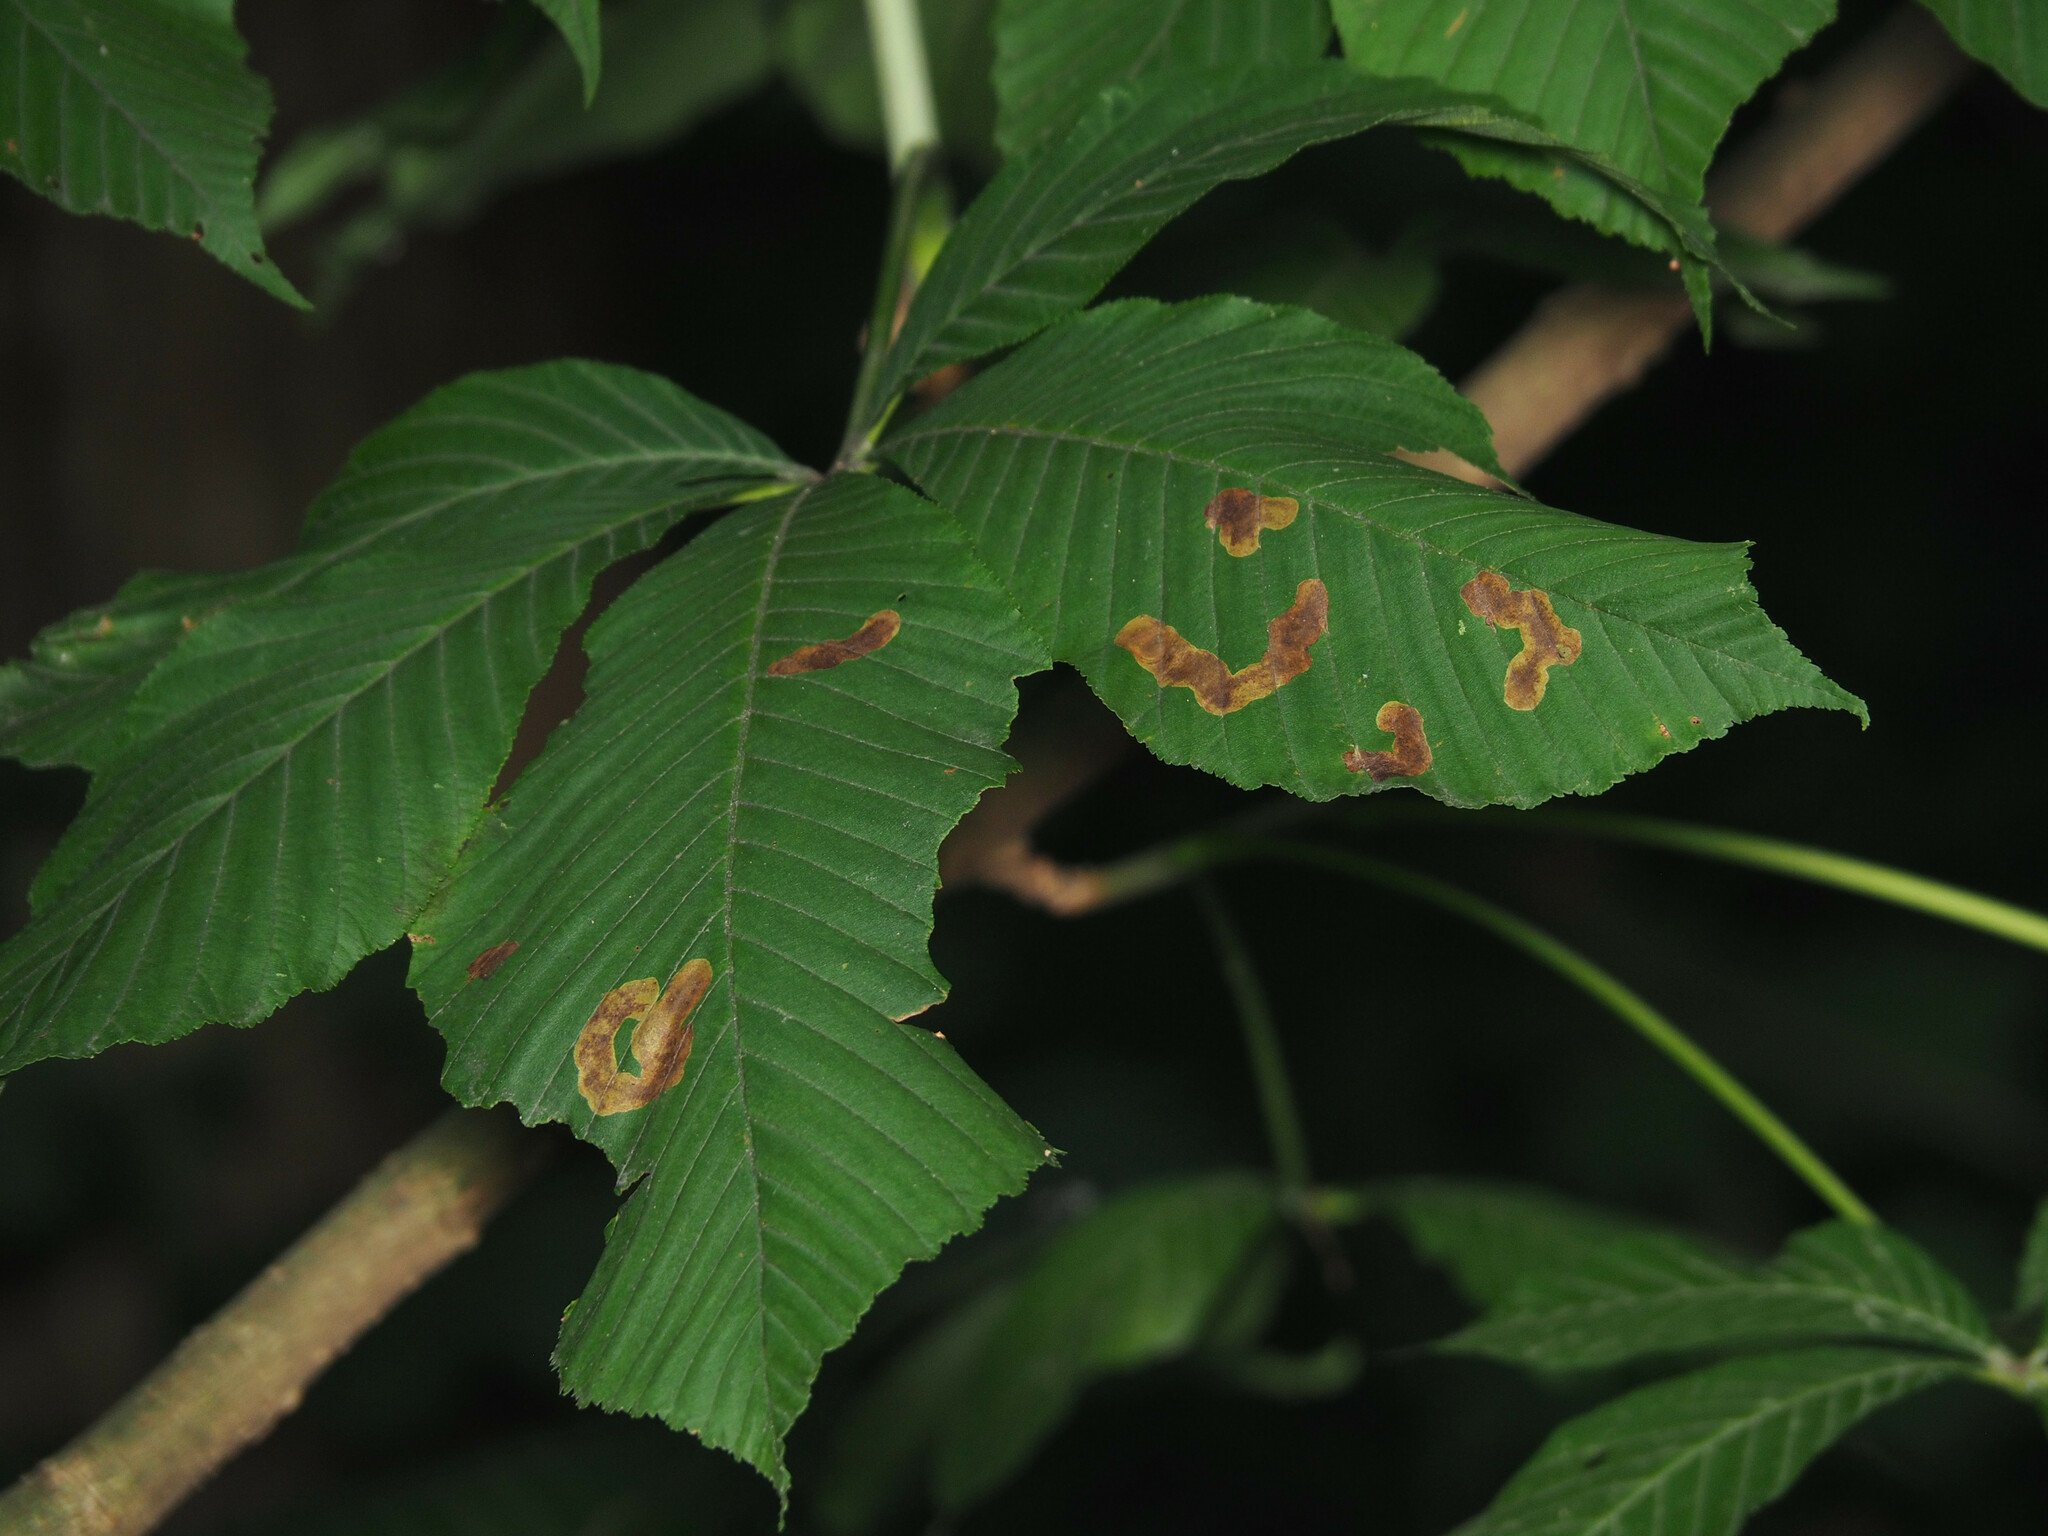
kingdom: Animalia
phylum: Arthropoda
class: Insecta
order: Lepidoptera
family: Gracillariidae
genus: Cameraria
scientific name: Cameraria aesculisella
